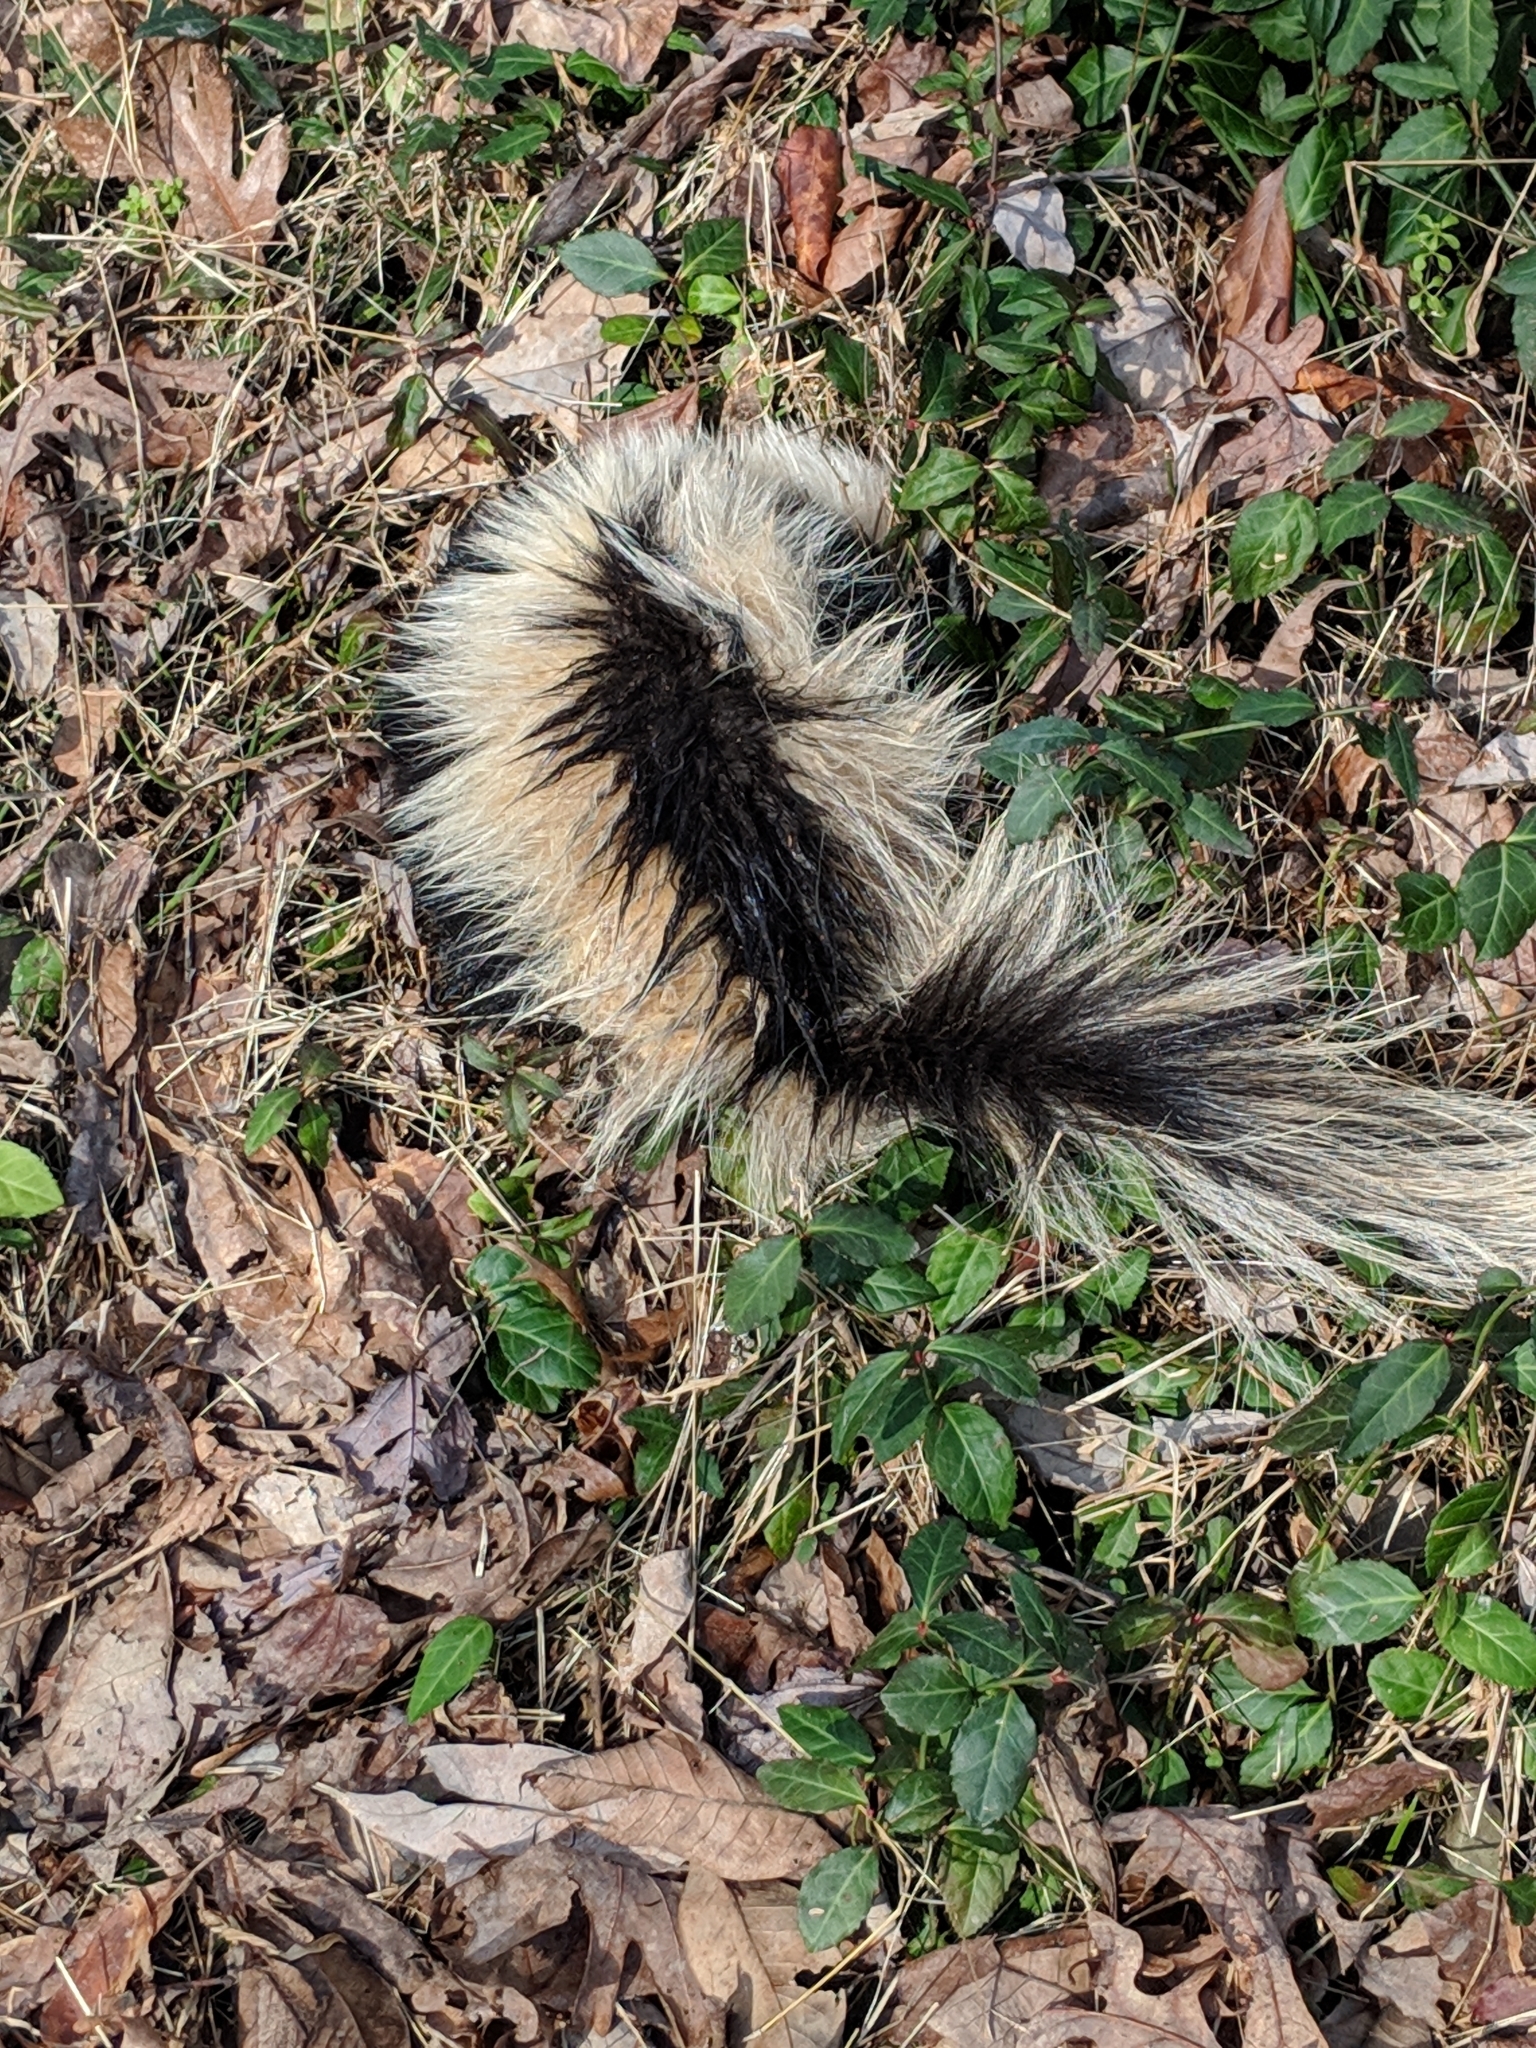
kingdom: Animalia
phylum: Chordata
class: Mammalia
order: Carnivora
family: Mephitidae
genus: Mephitis
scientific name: Mephitis mephitis
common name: Striped skunk
